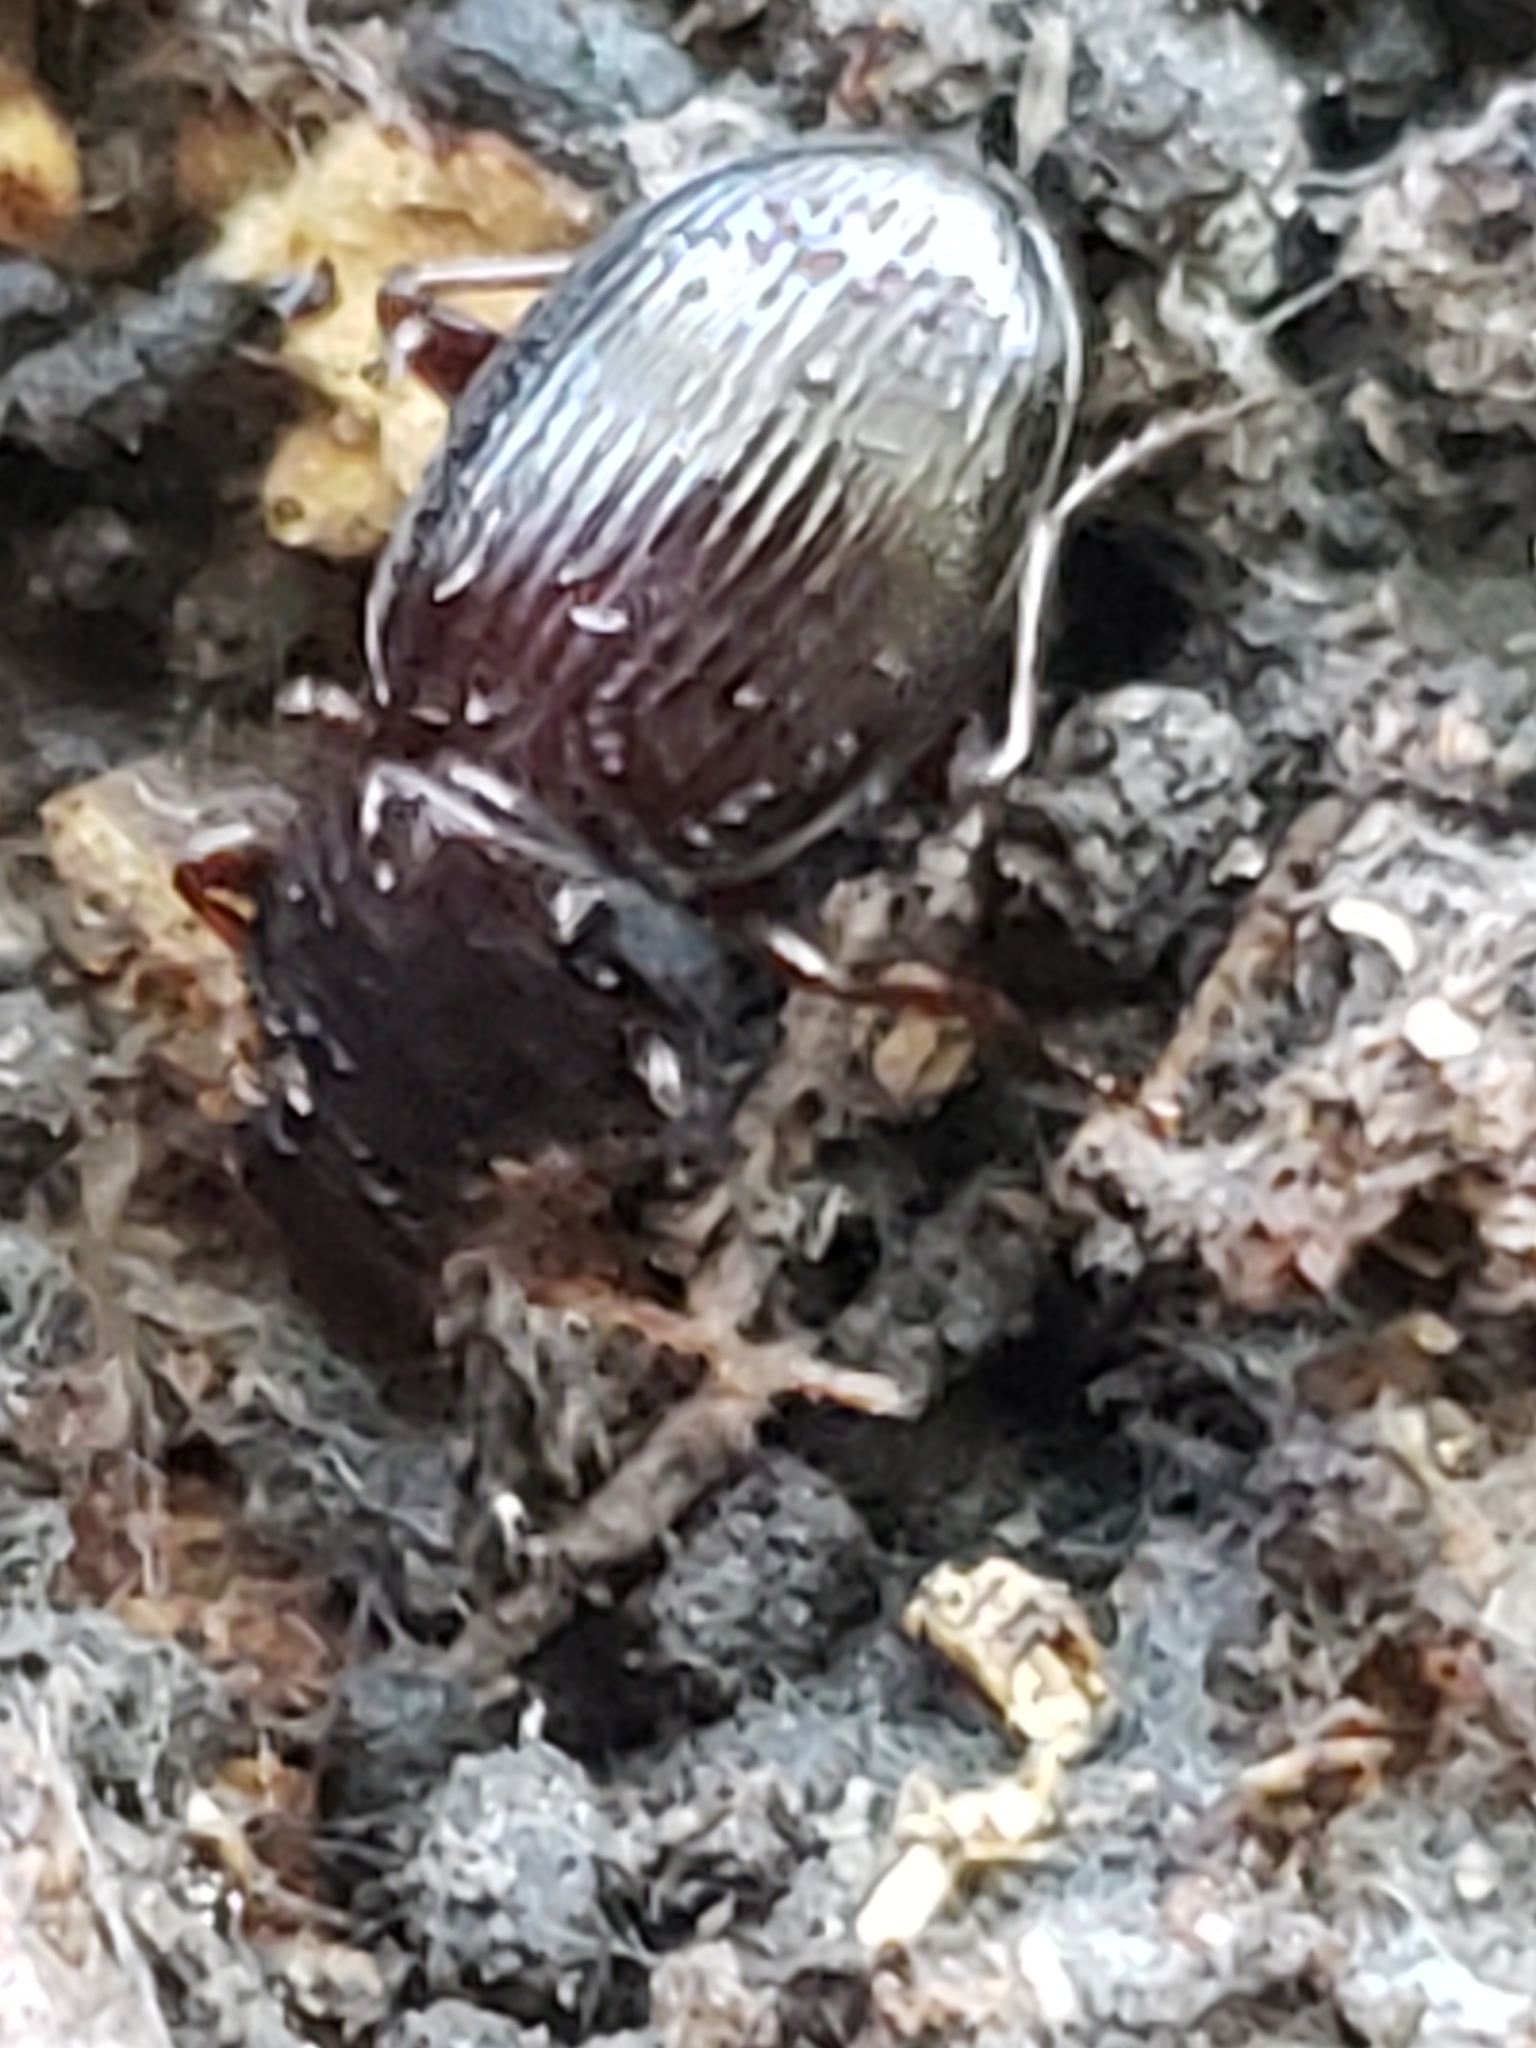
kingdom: Animalia
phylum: Arthropoda
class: Insecta
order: Coleoptera
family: Carabidae
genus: Gastrellarius
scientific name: Gastrellarius honestus
